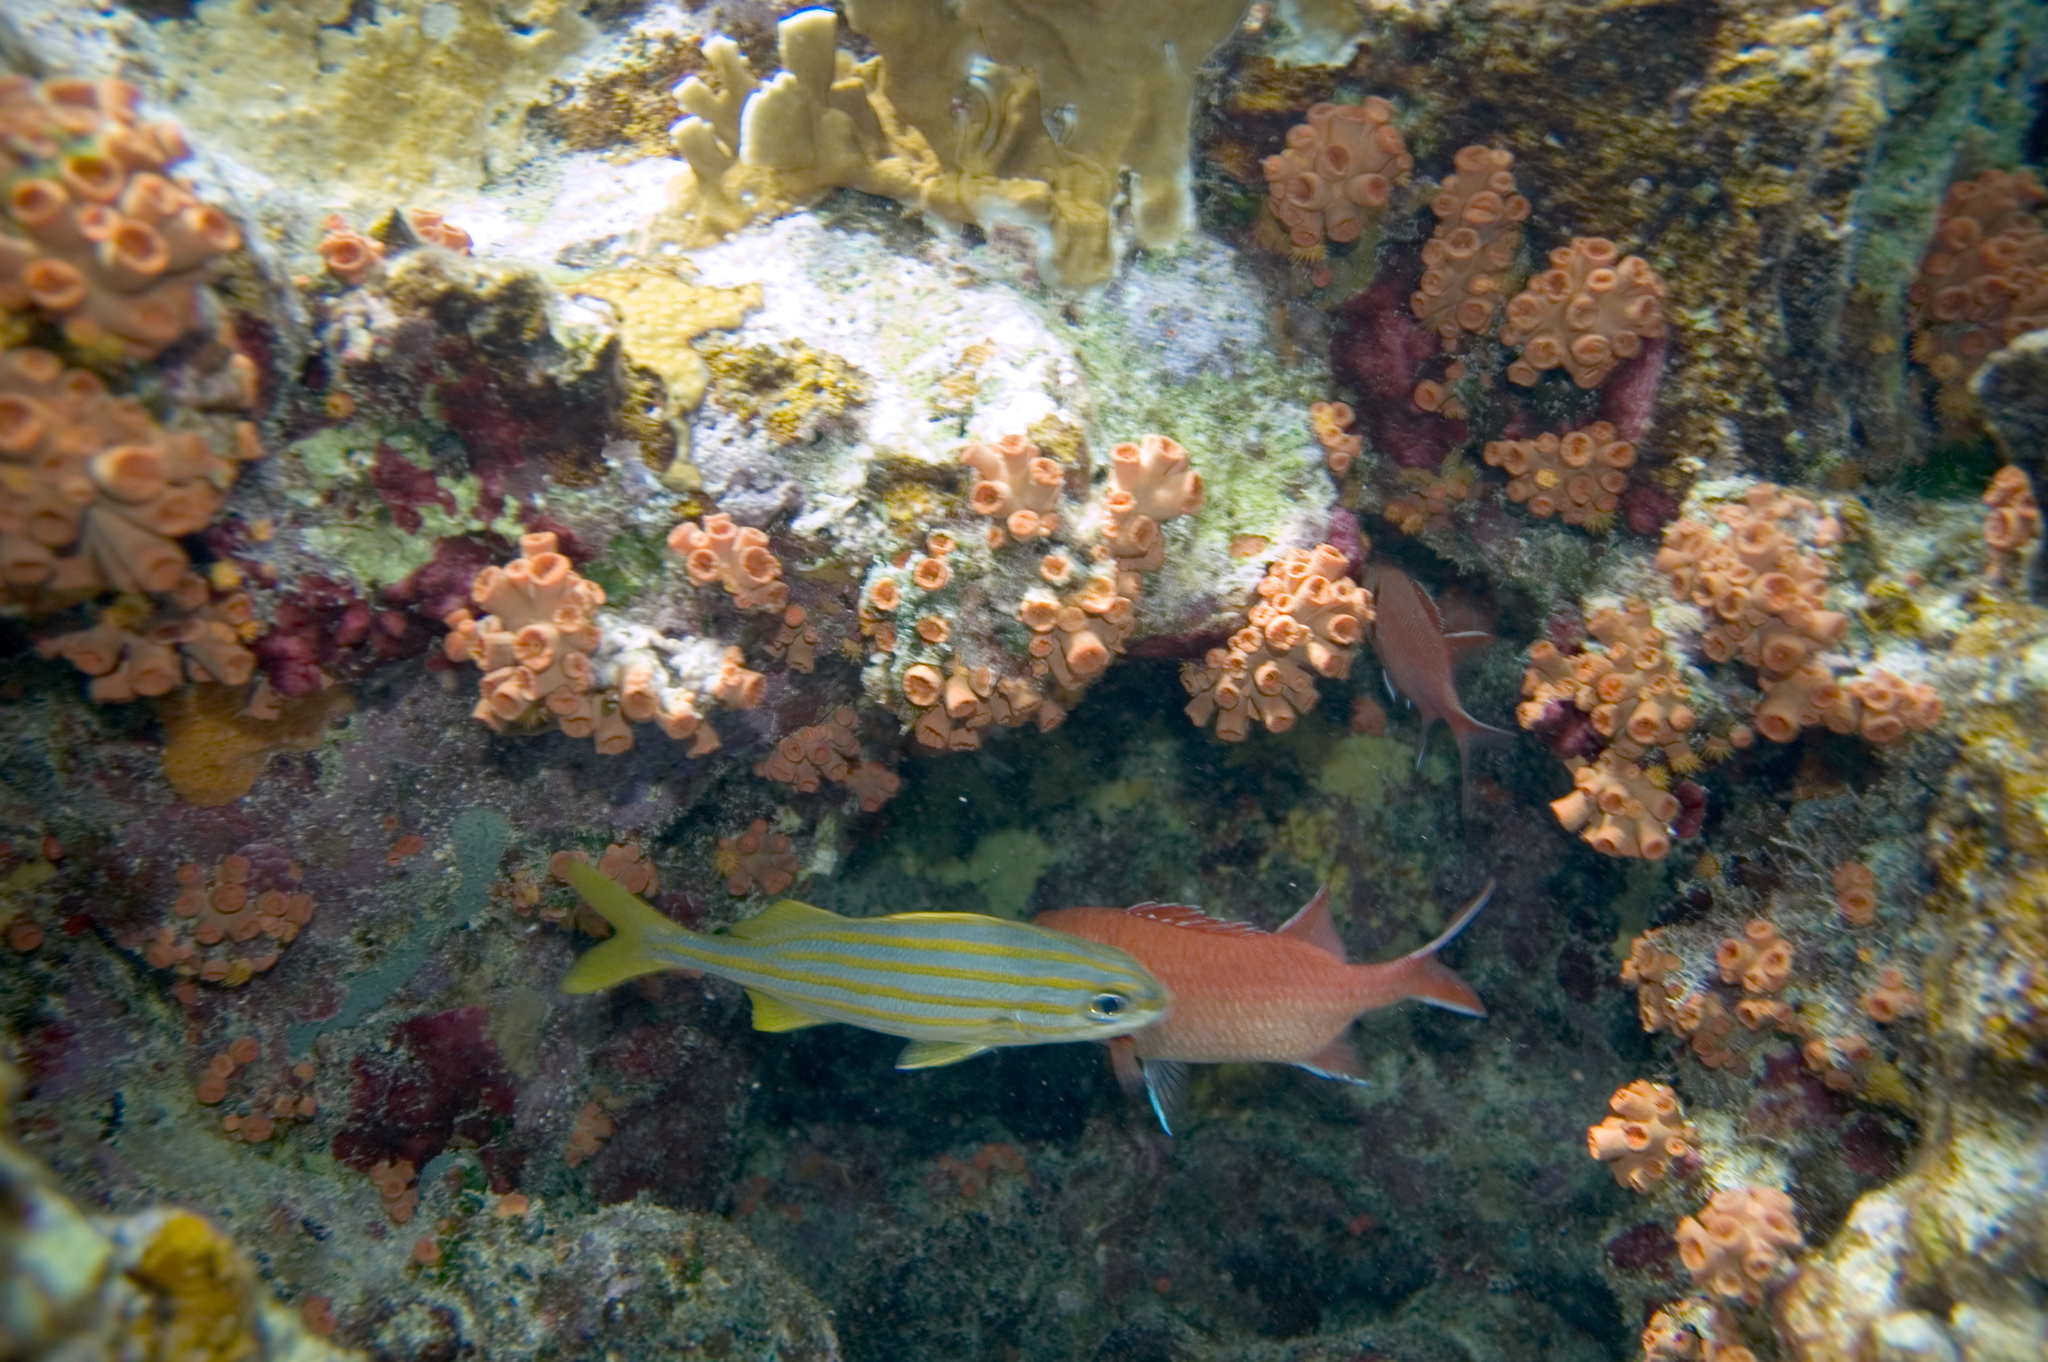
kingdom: Animalia
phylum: Chordata
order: Perciformes
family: Haemulidae
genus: Haemulon
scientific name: Haemulon chrysargyreum
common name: Smallmouth grunt
